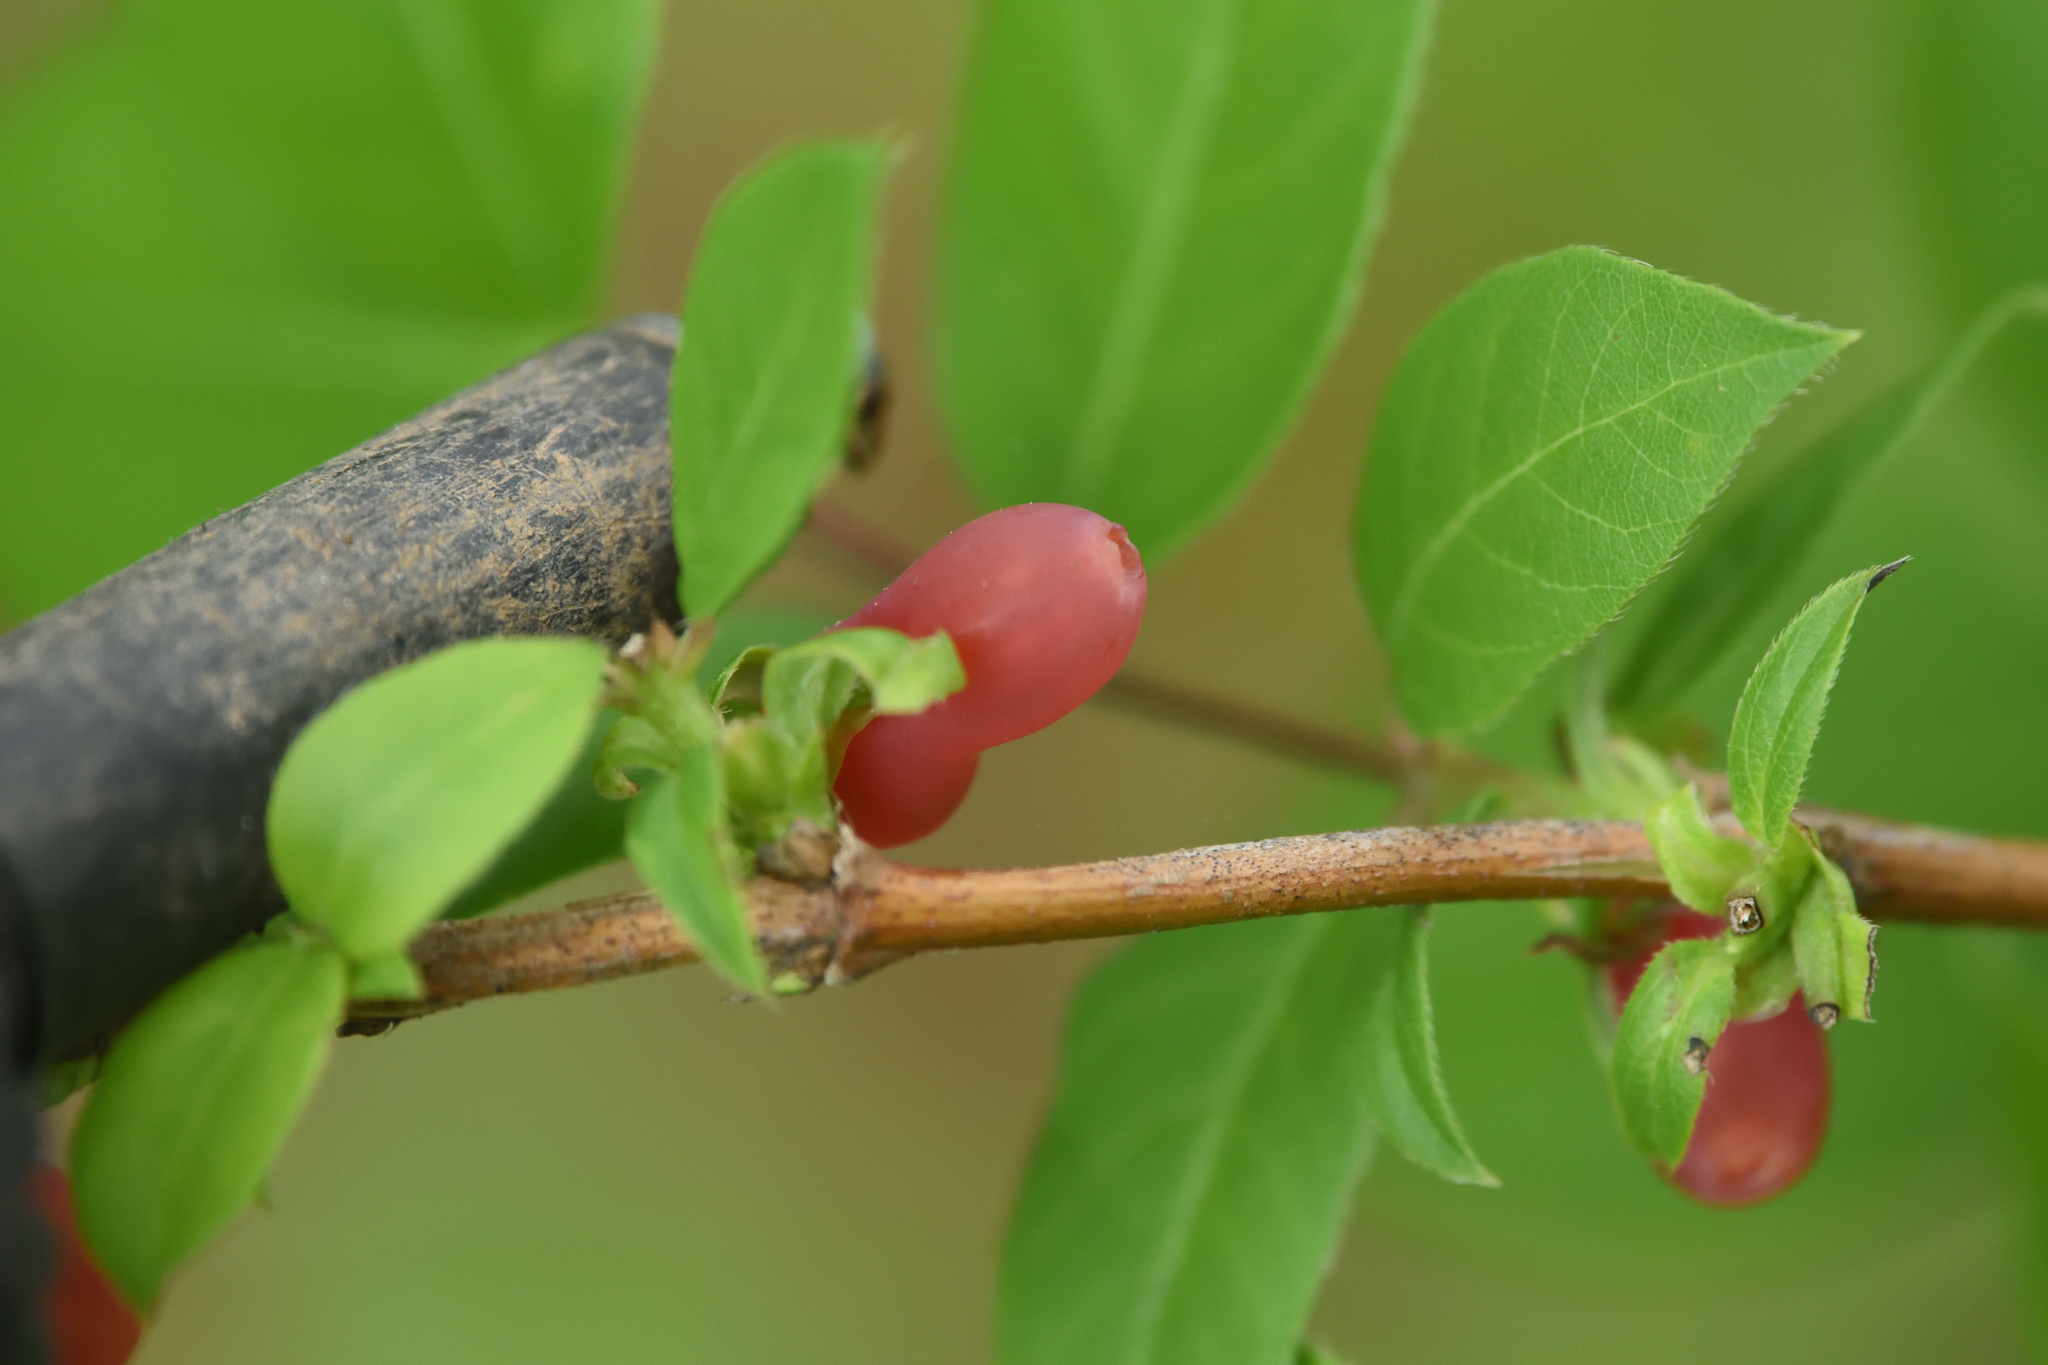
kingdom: Plantae
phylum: Tracheophyta
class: Magnoliopsida
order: Dipsacales
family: Caprifoliaceae
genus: Lonicera
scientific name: Lonicera fragrantissima
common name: Fragrant honeysuckle
